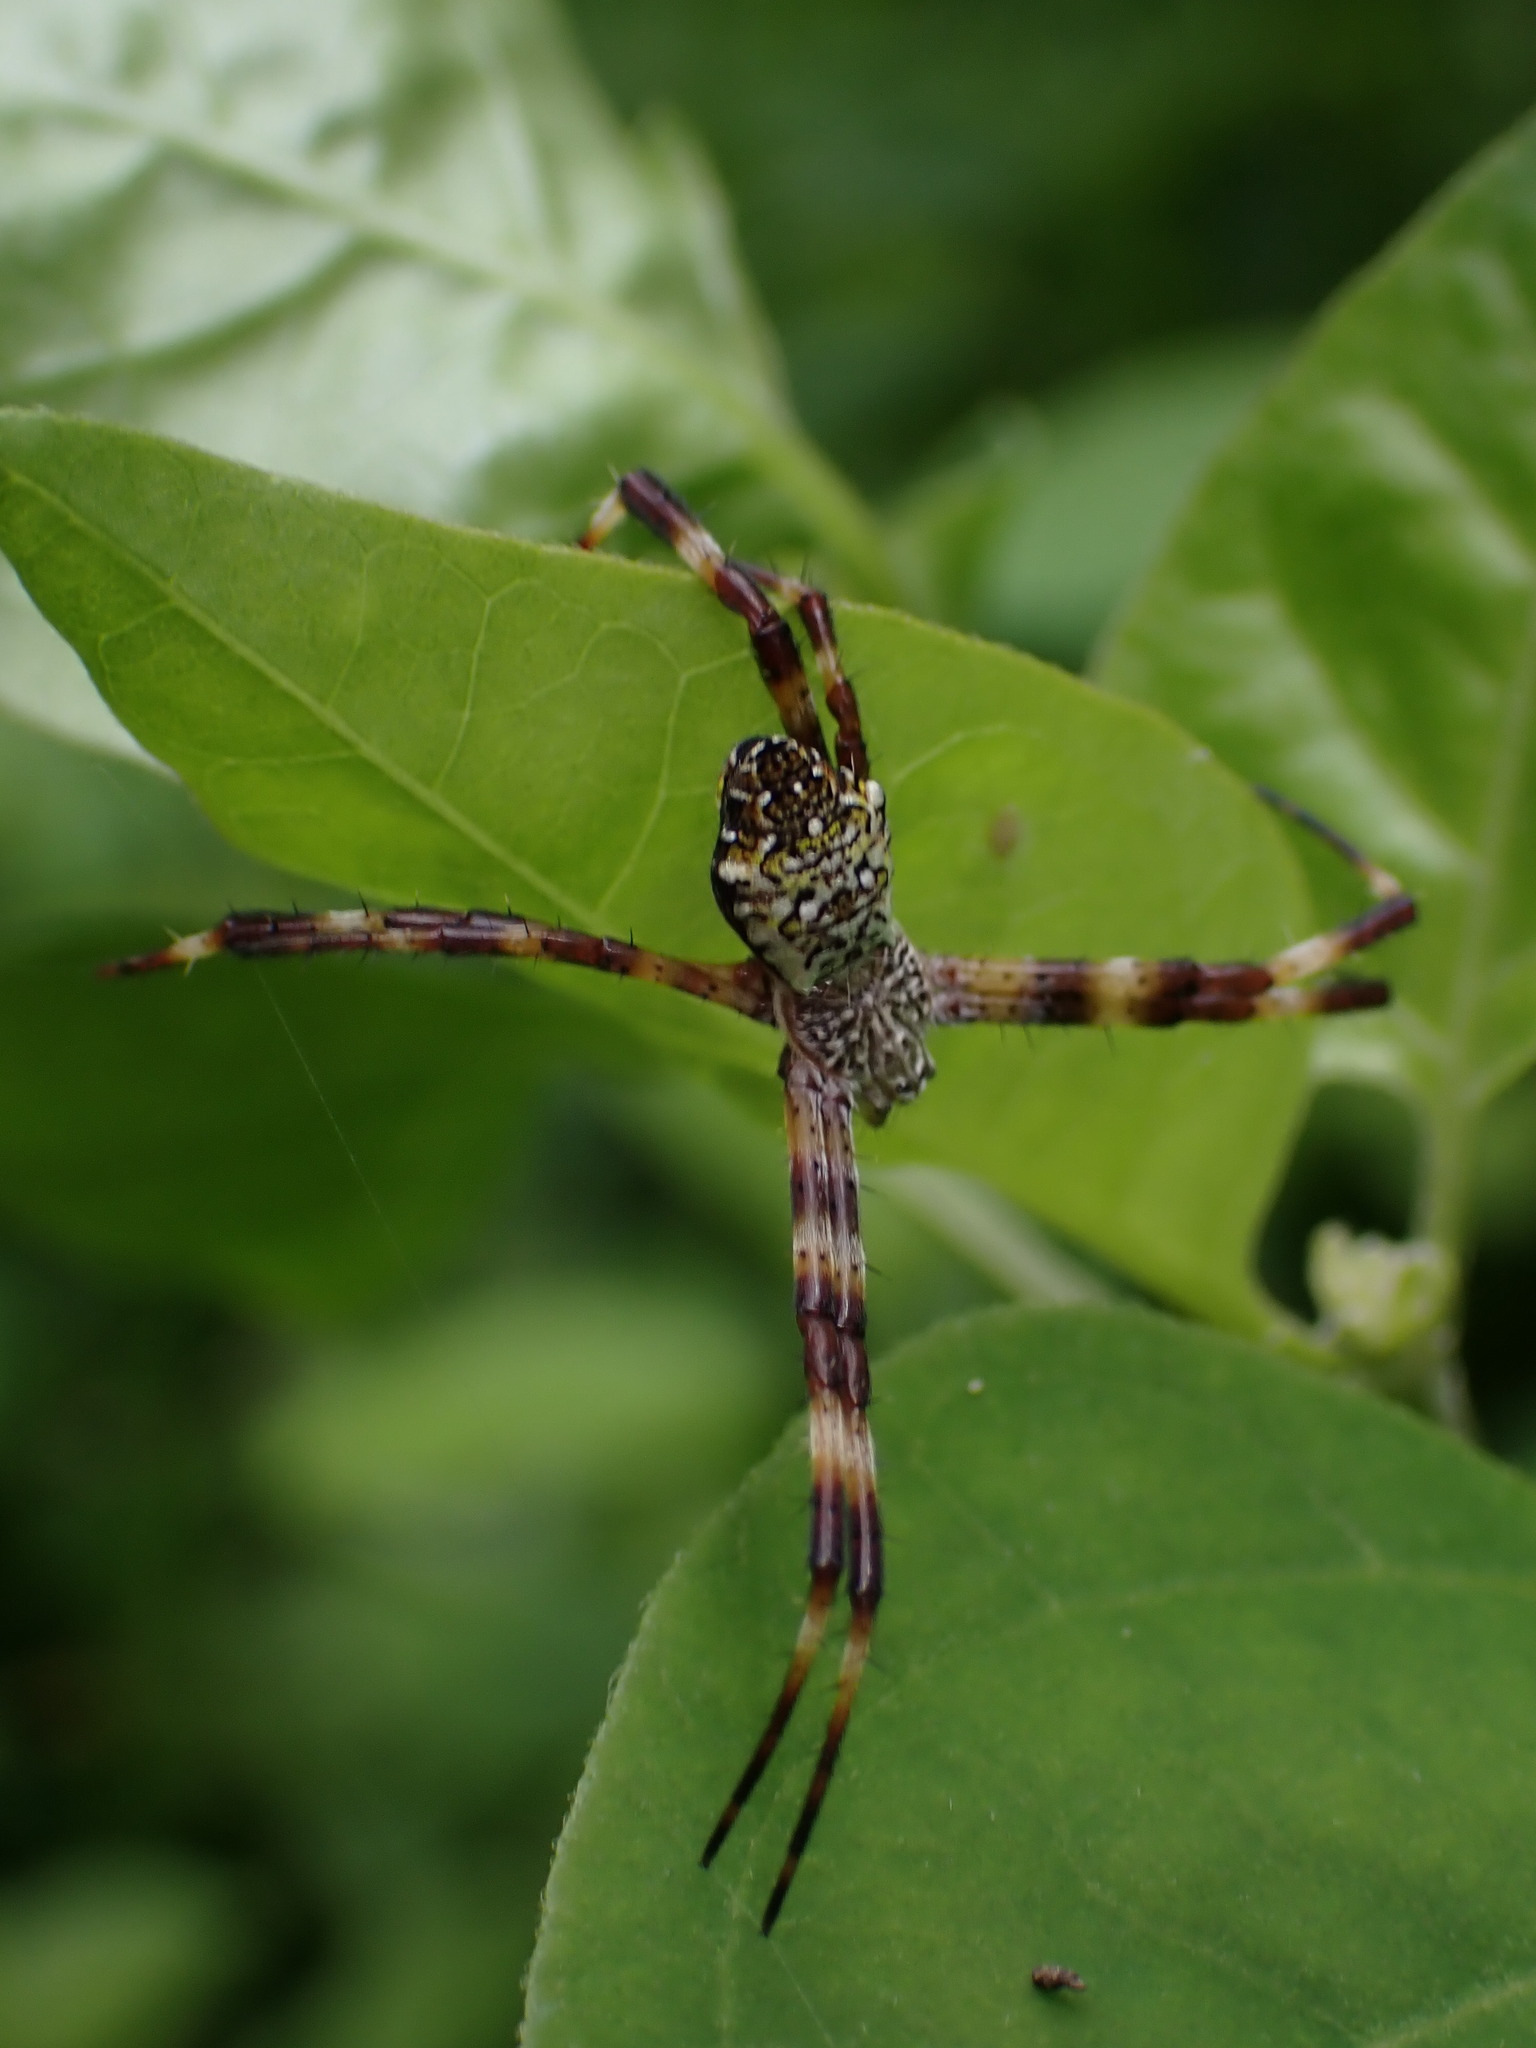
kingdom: Animalia
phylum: Arthropoda
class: Arachnida
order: Araneae
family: Araneidae
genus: Argiope
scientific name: Argiope appensa
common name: Garden spider
